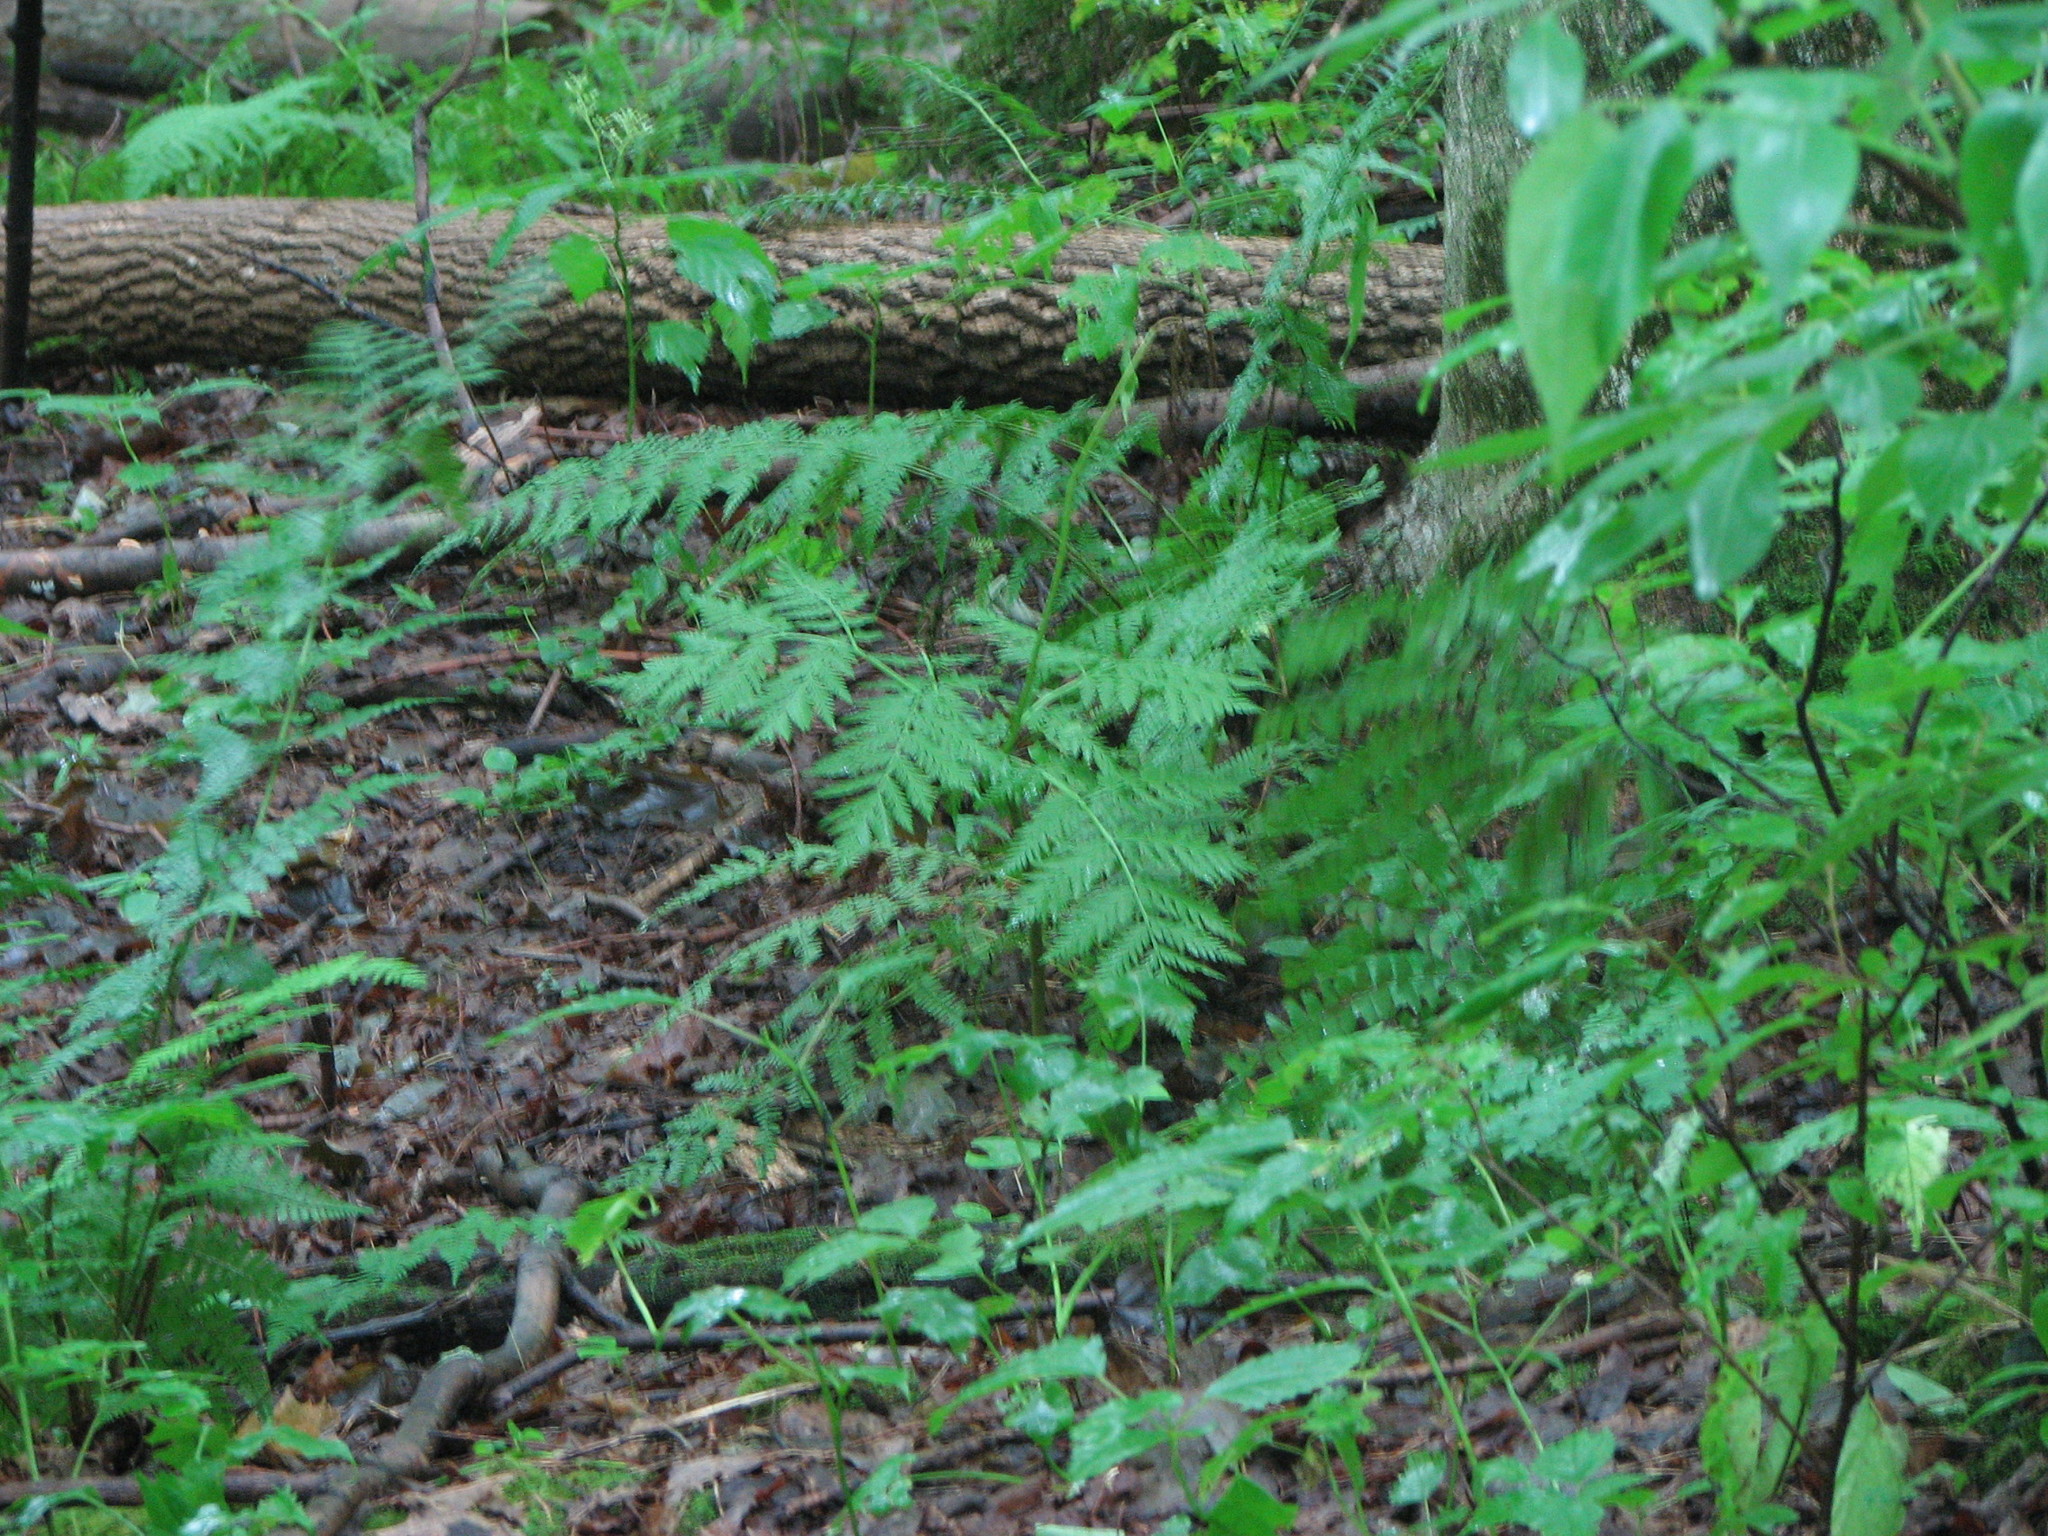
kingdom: Plantae
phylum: Tracheophyta
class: Polypodiopsida
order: Ophioglossales
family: Ophioglossaceae
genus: Botrypus
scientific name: Botrypus virginianus
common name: Common grapefern
